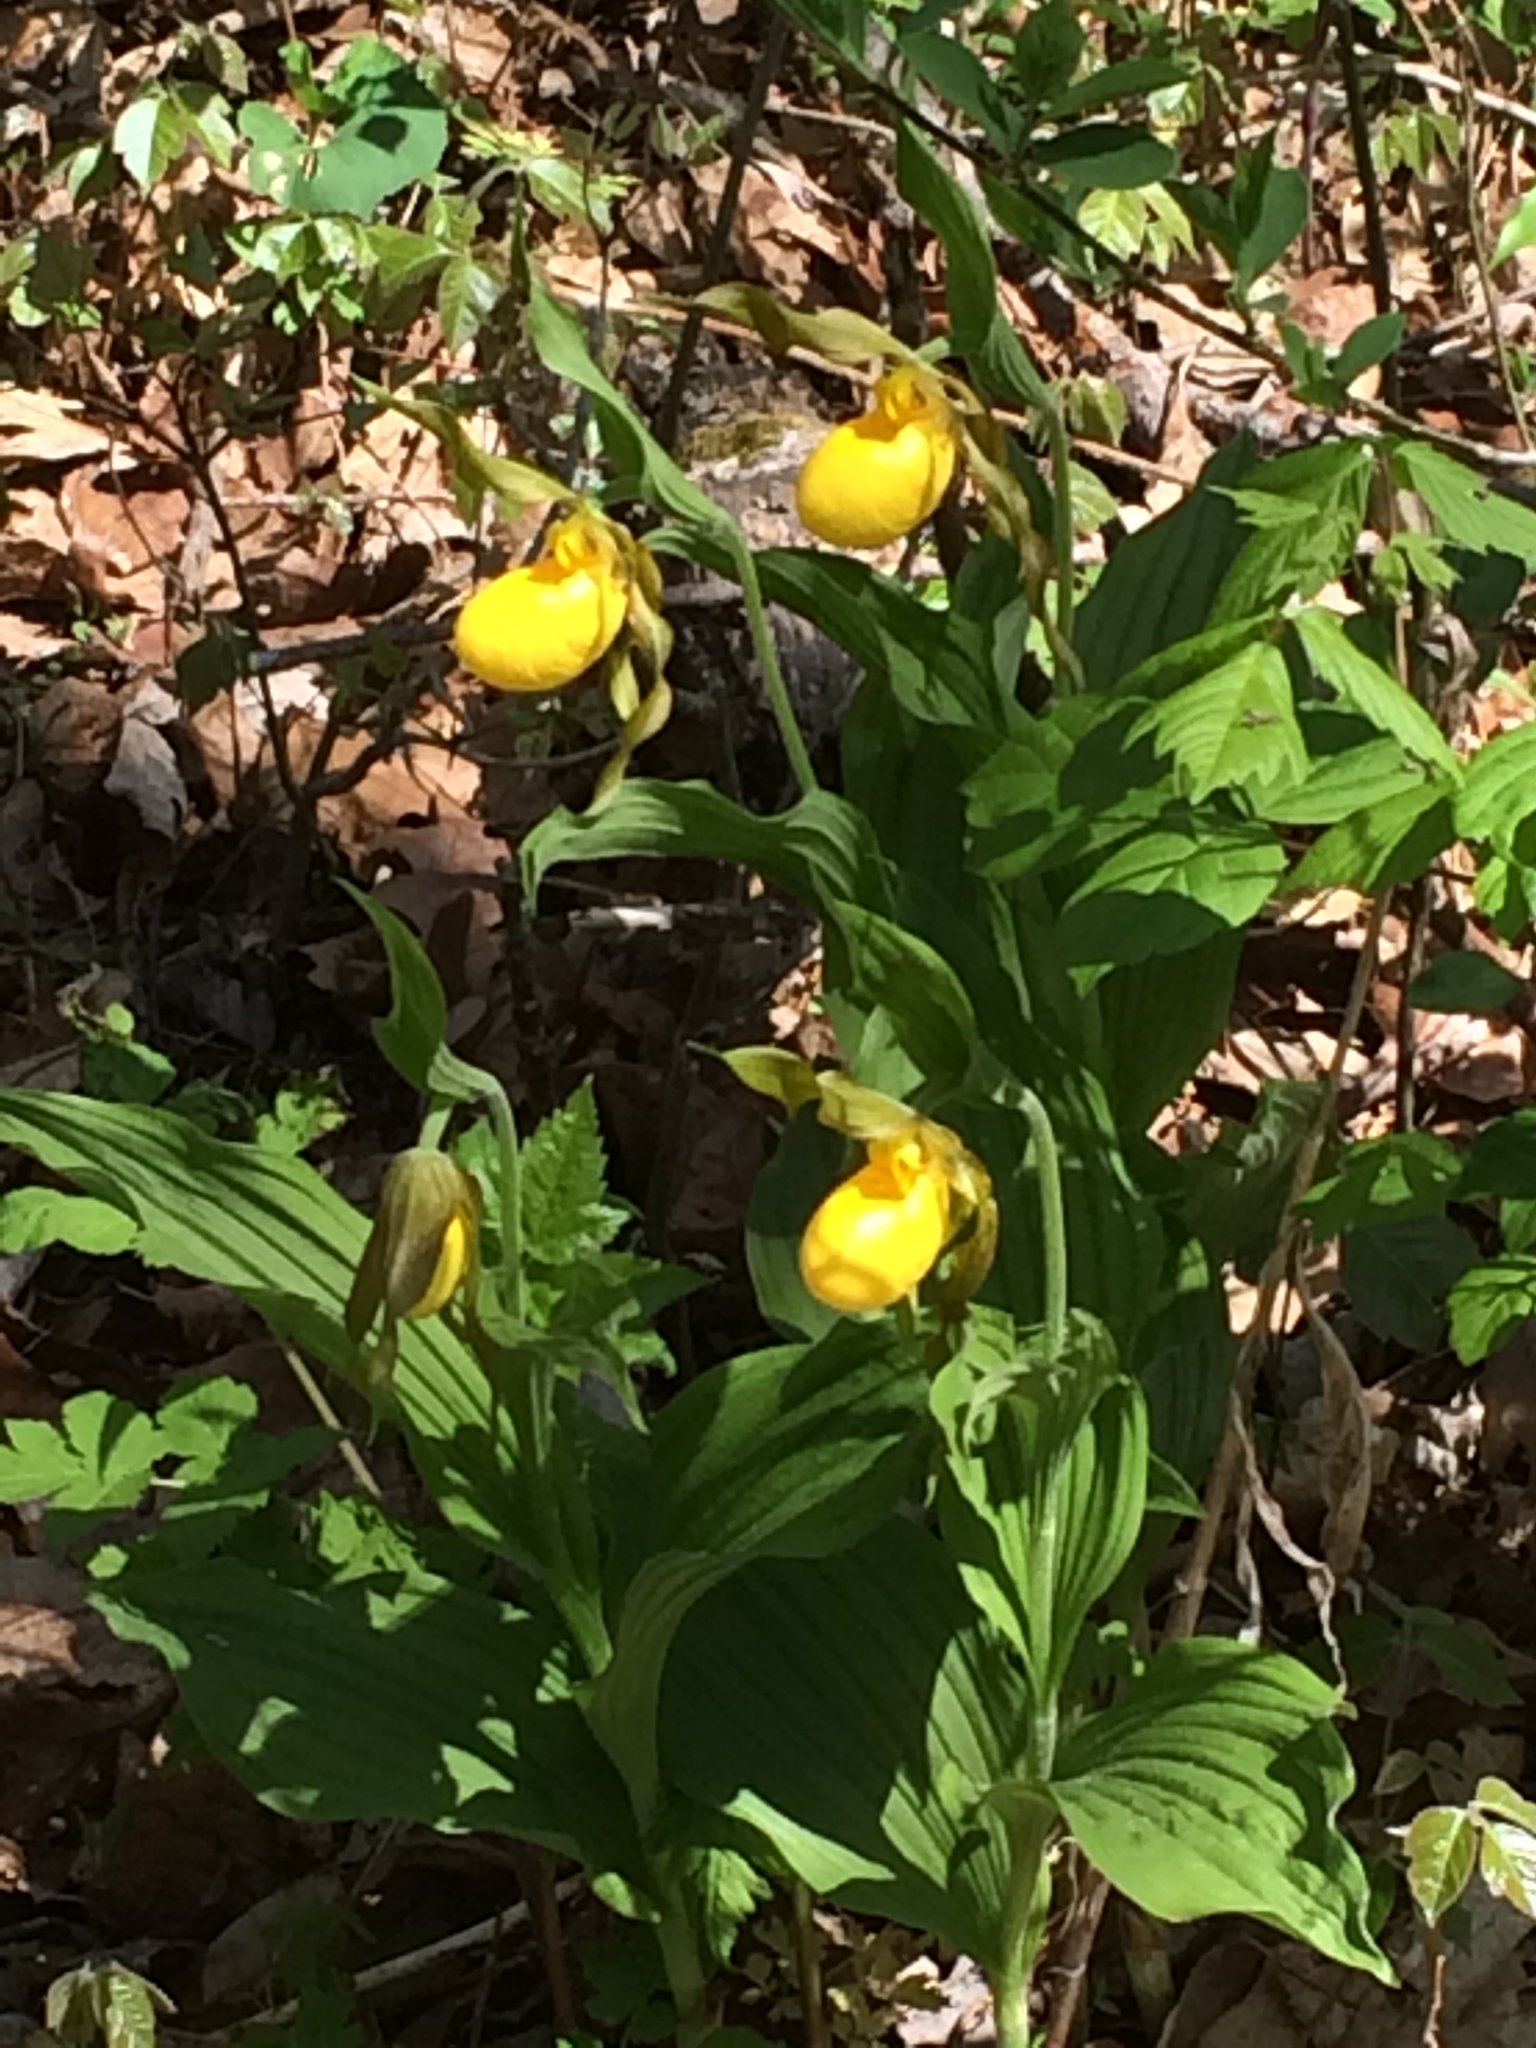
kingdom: Plantae
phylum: Tracheophyta
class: Liliopsida
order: Asparagales
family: Orchidaceae
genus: Cypripedium
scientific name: Cypripedium parviflorum
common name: American yellow lady's-slipper
